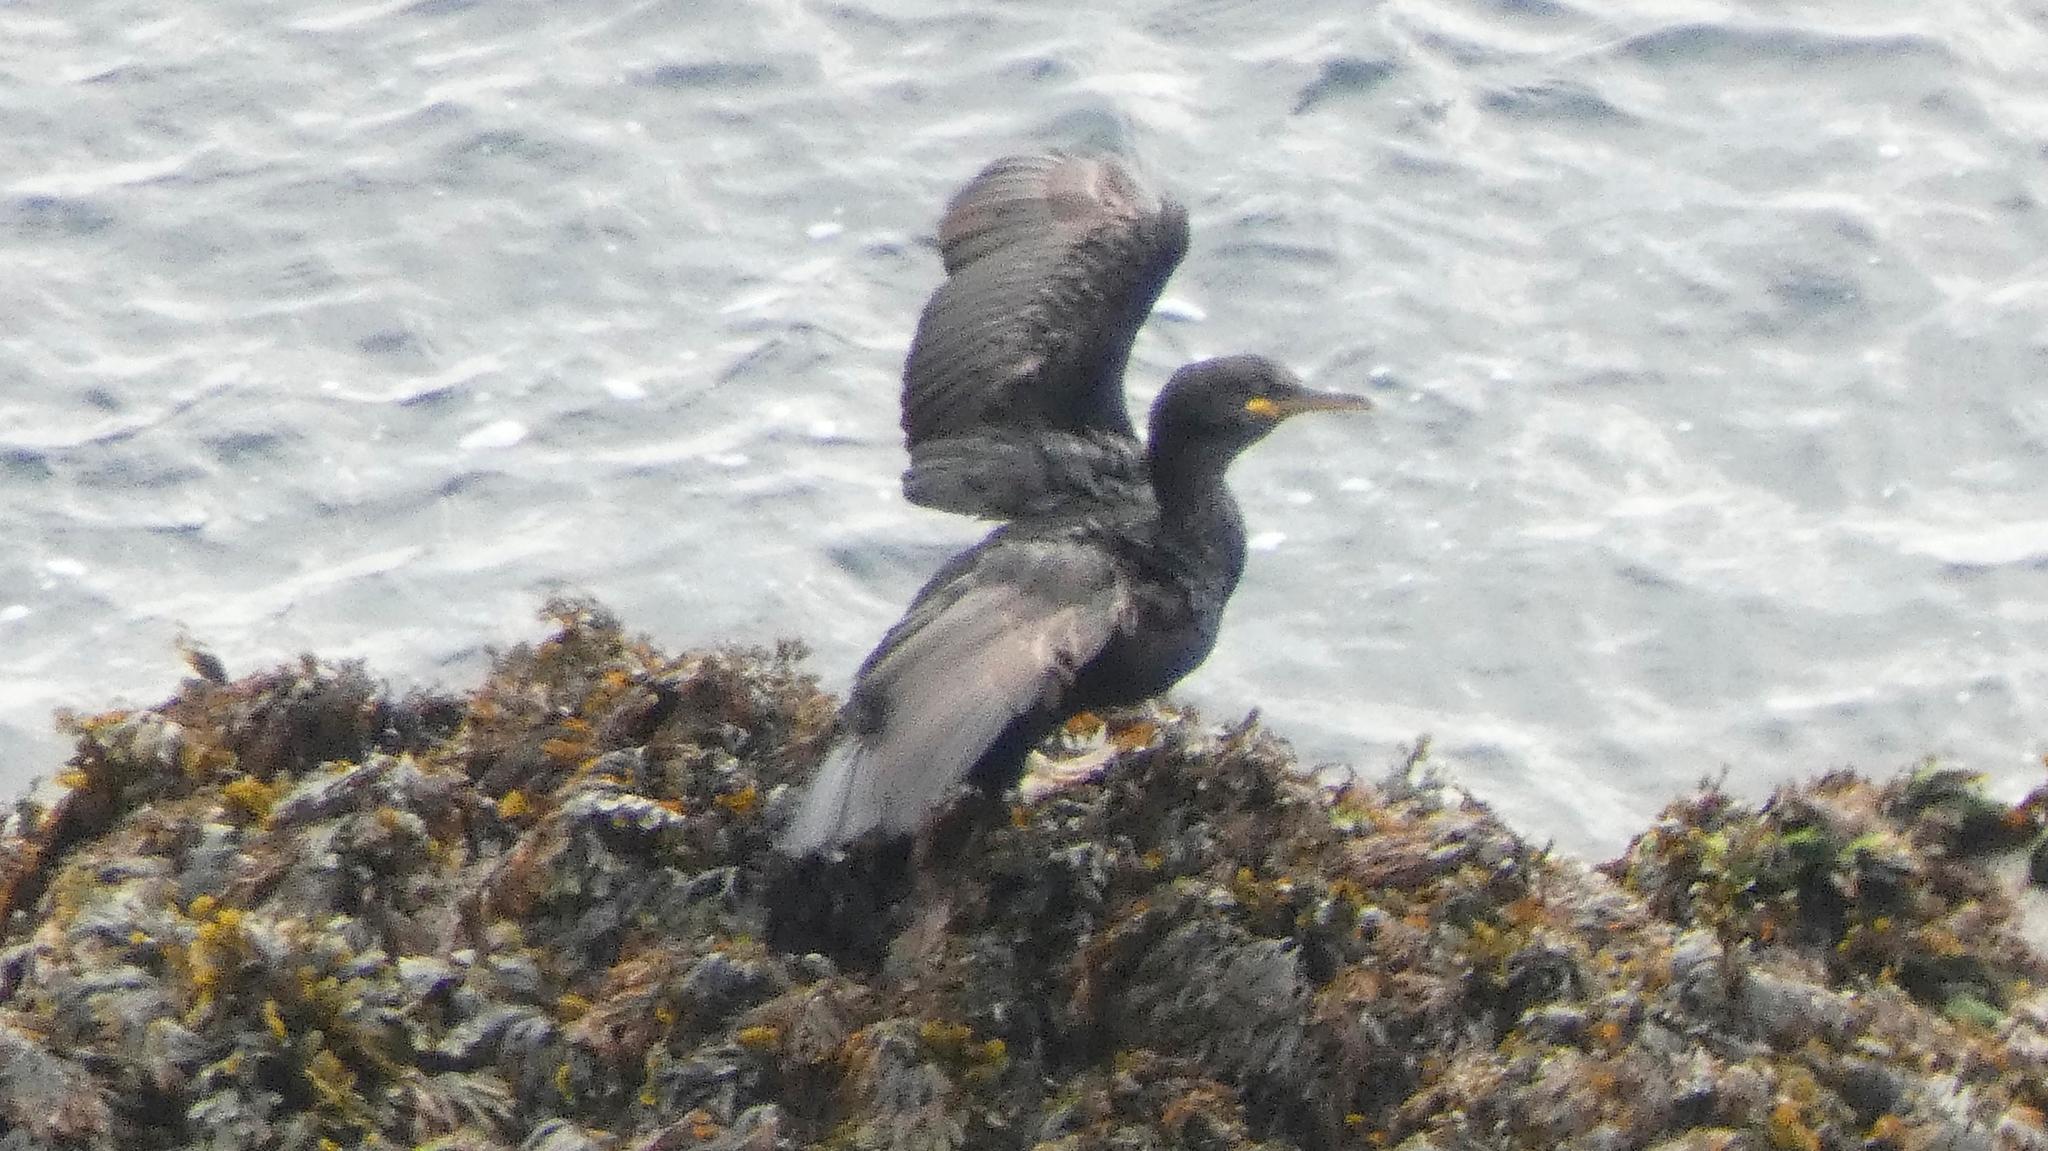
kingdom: Animalia
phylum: Chordata
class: Aves
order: Suliformes
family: Phalacrocoracidae
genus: Phalacrocorax
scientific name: Phalacrocorax aristotelis
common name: European shag
